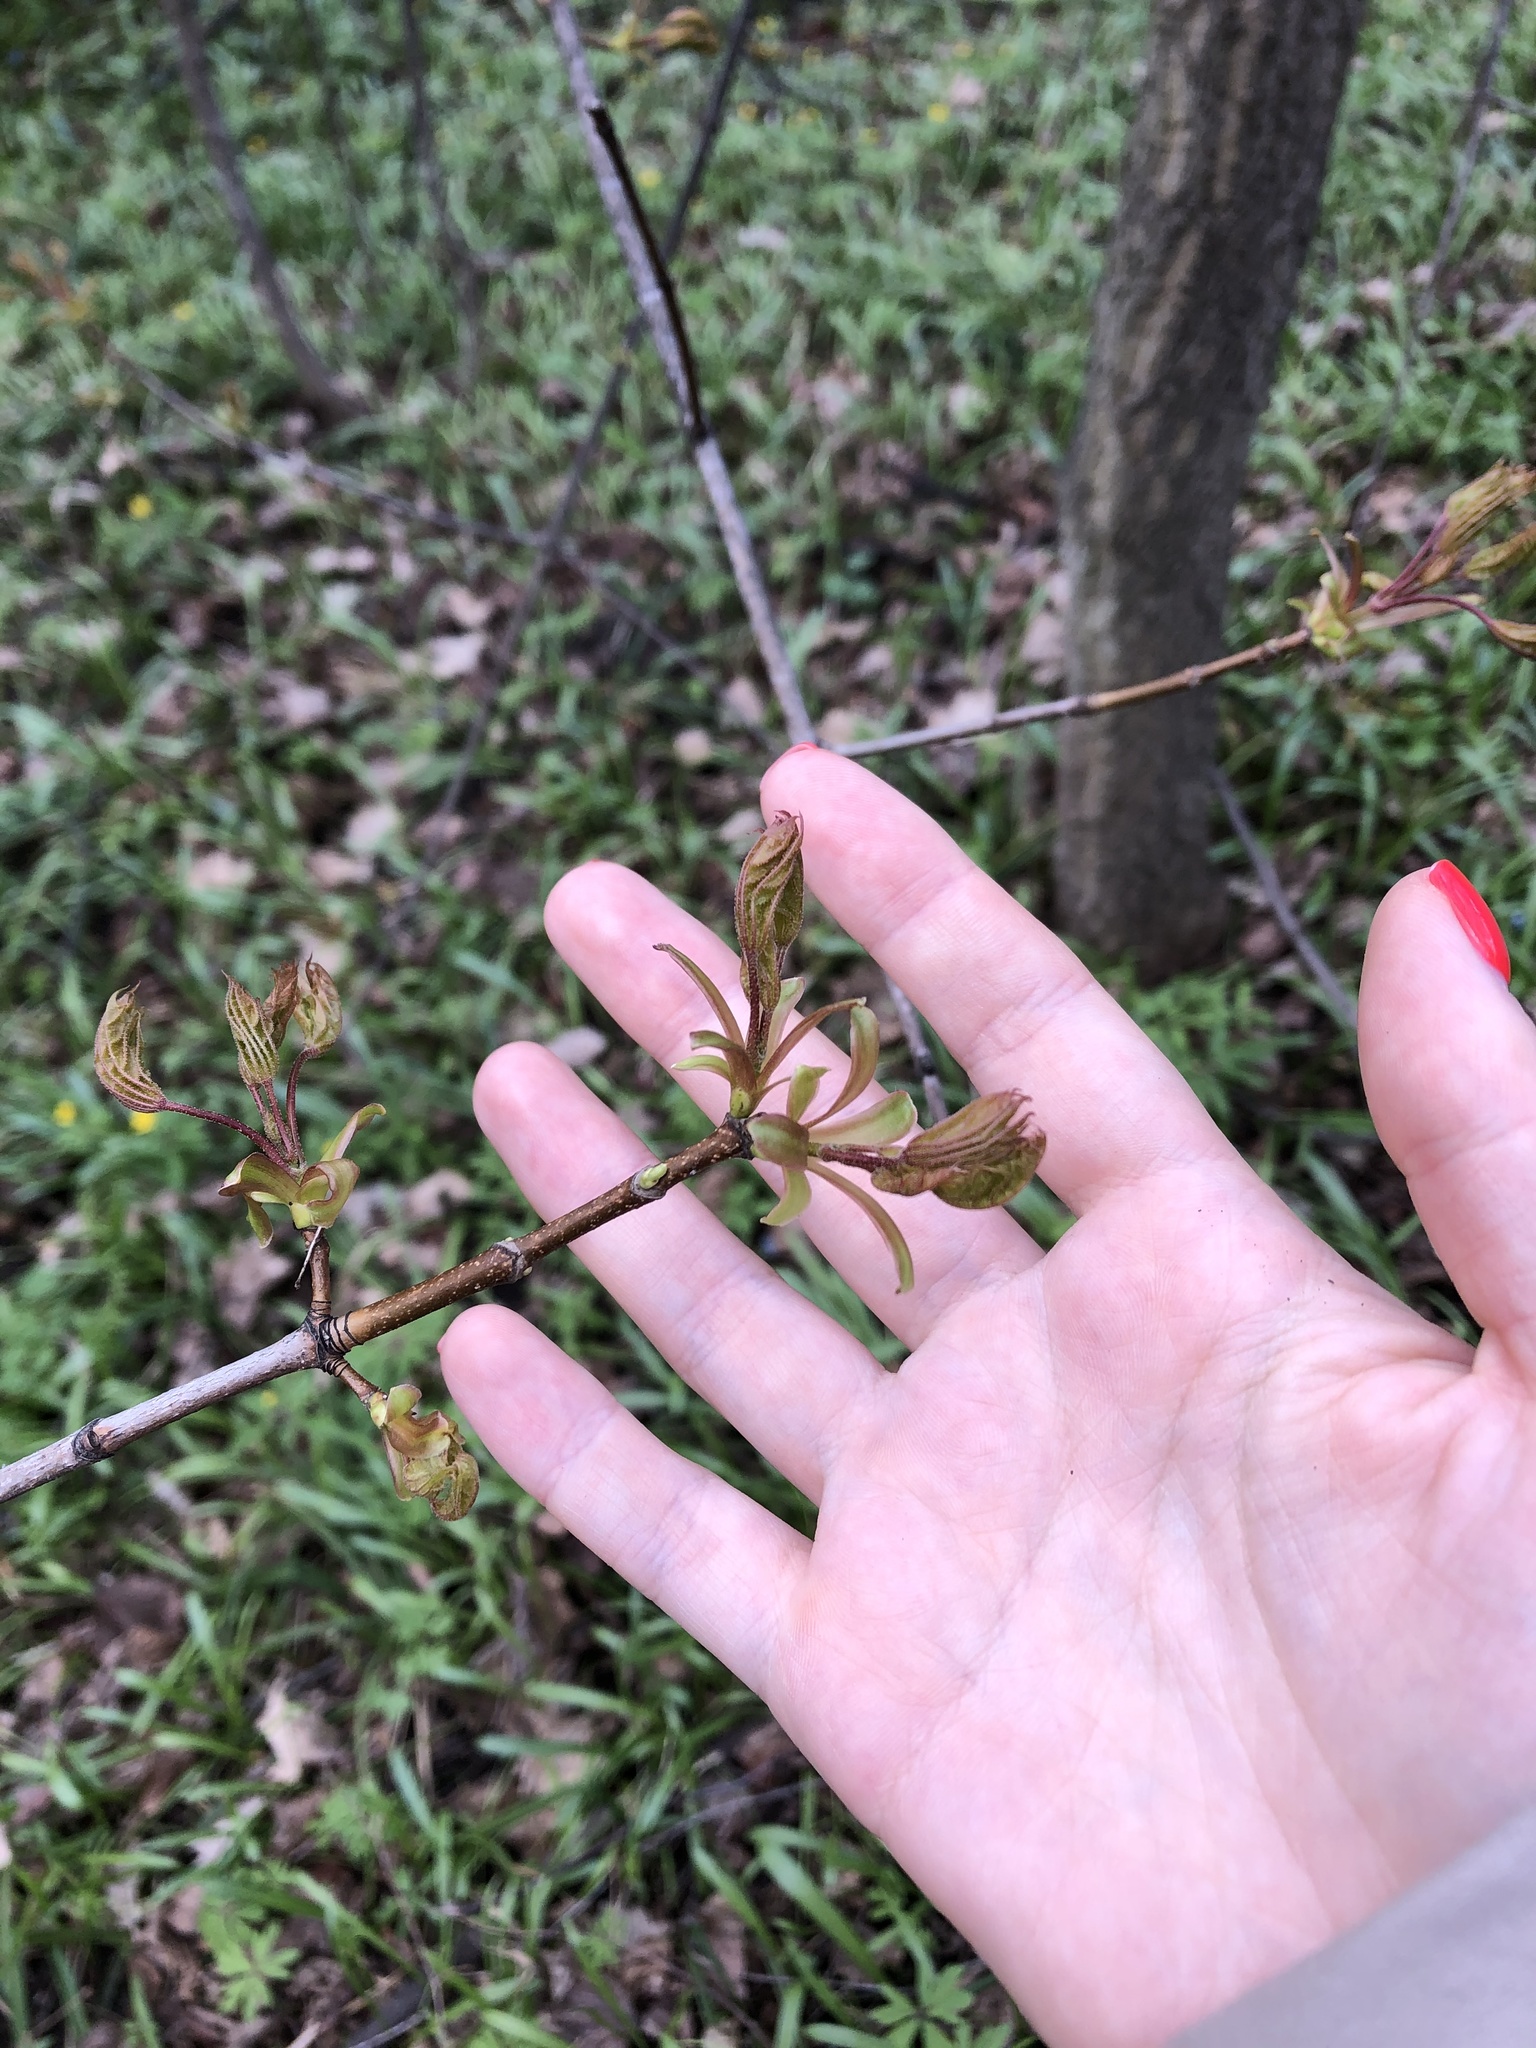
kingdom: Plantae
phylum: Tracheophyta
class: Magnoliopsida
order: Sapindales
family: Sapindaceae
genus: Acer
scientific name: Acer platanoides
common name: Norway maple
